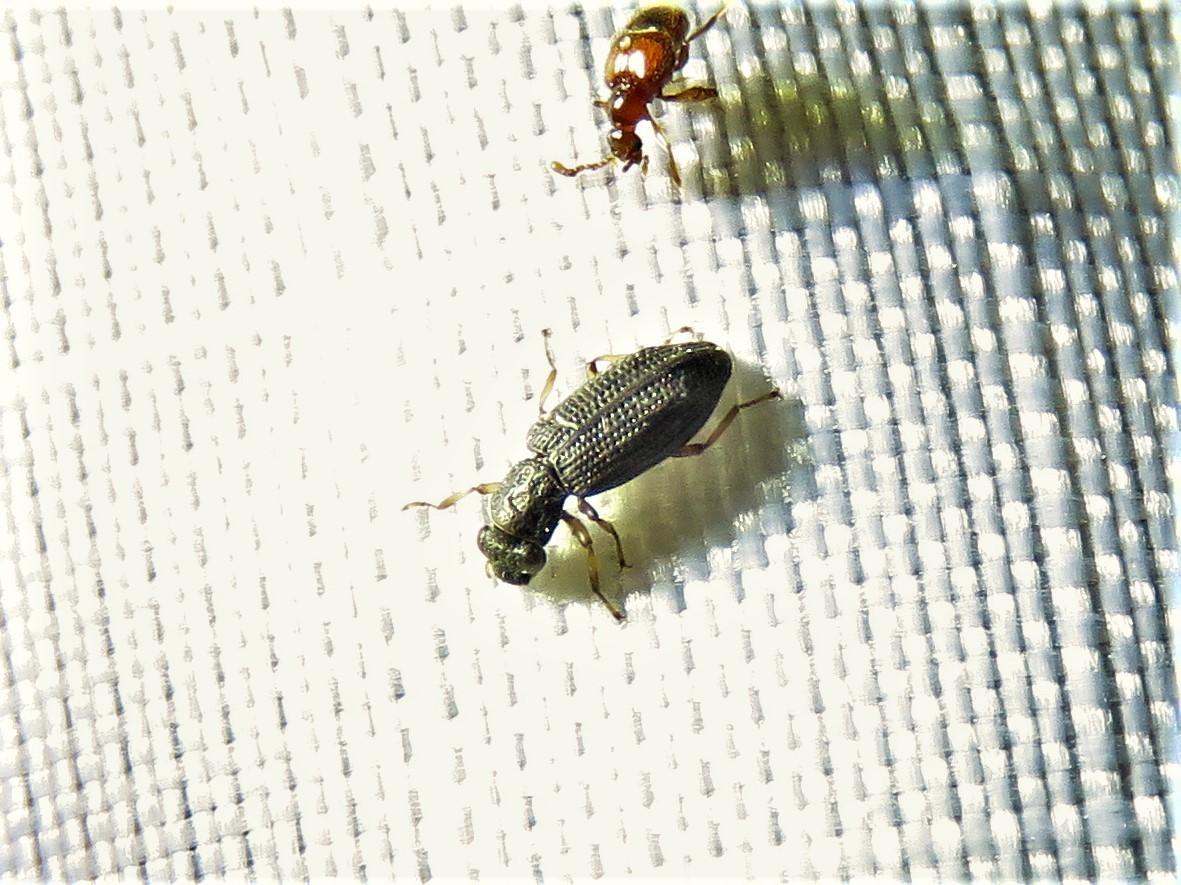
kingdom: Animalia
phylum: Arthropoda
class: Insecta
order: Coleoptera
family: Hydrochidae
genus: Hydrochus
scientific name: Hydrochus
